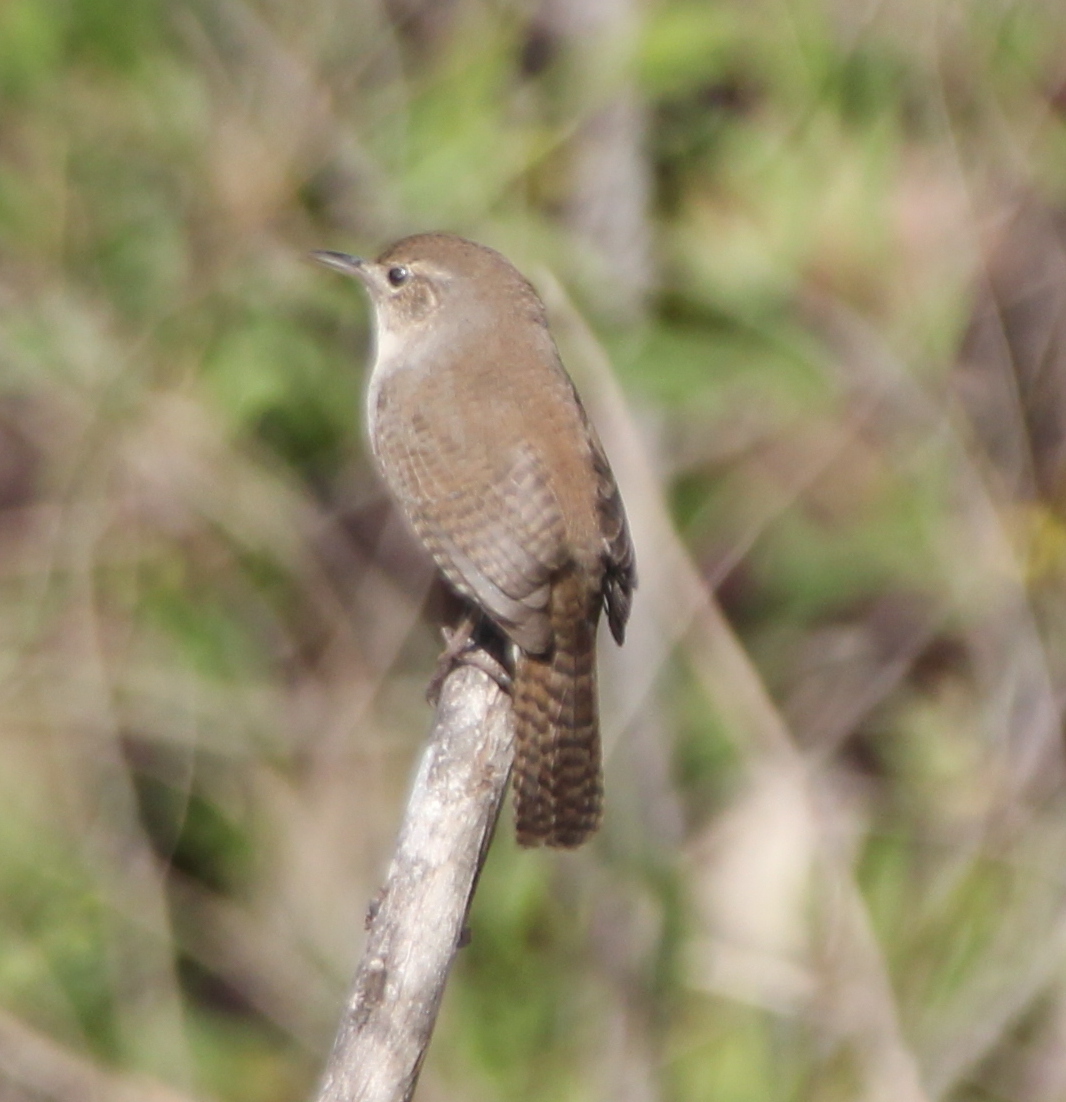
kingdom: Animalia
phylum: Chordata
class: Aves
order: Passeriformes
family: Troglodytidae
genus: Troglodytes
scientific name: Troglodytes aedon
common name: House wren
